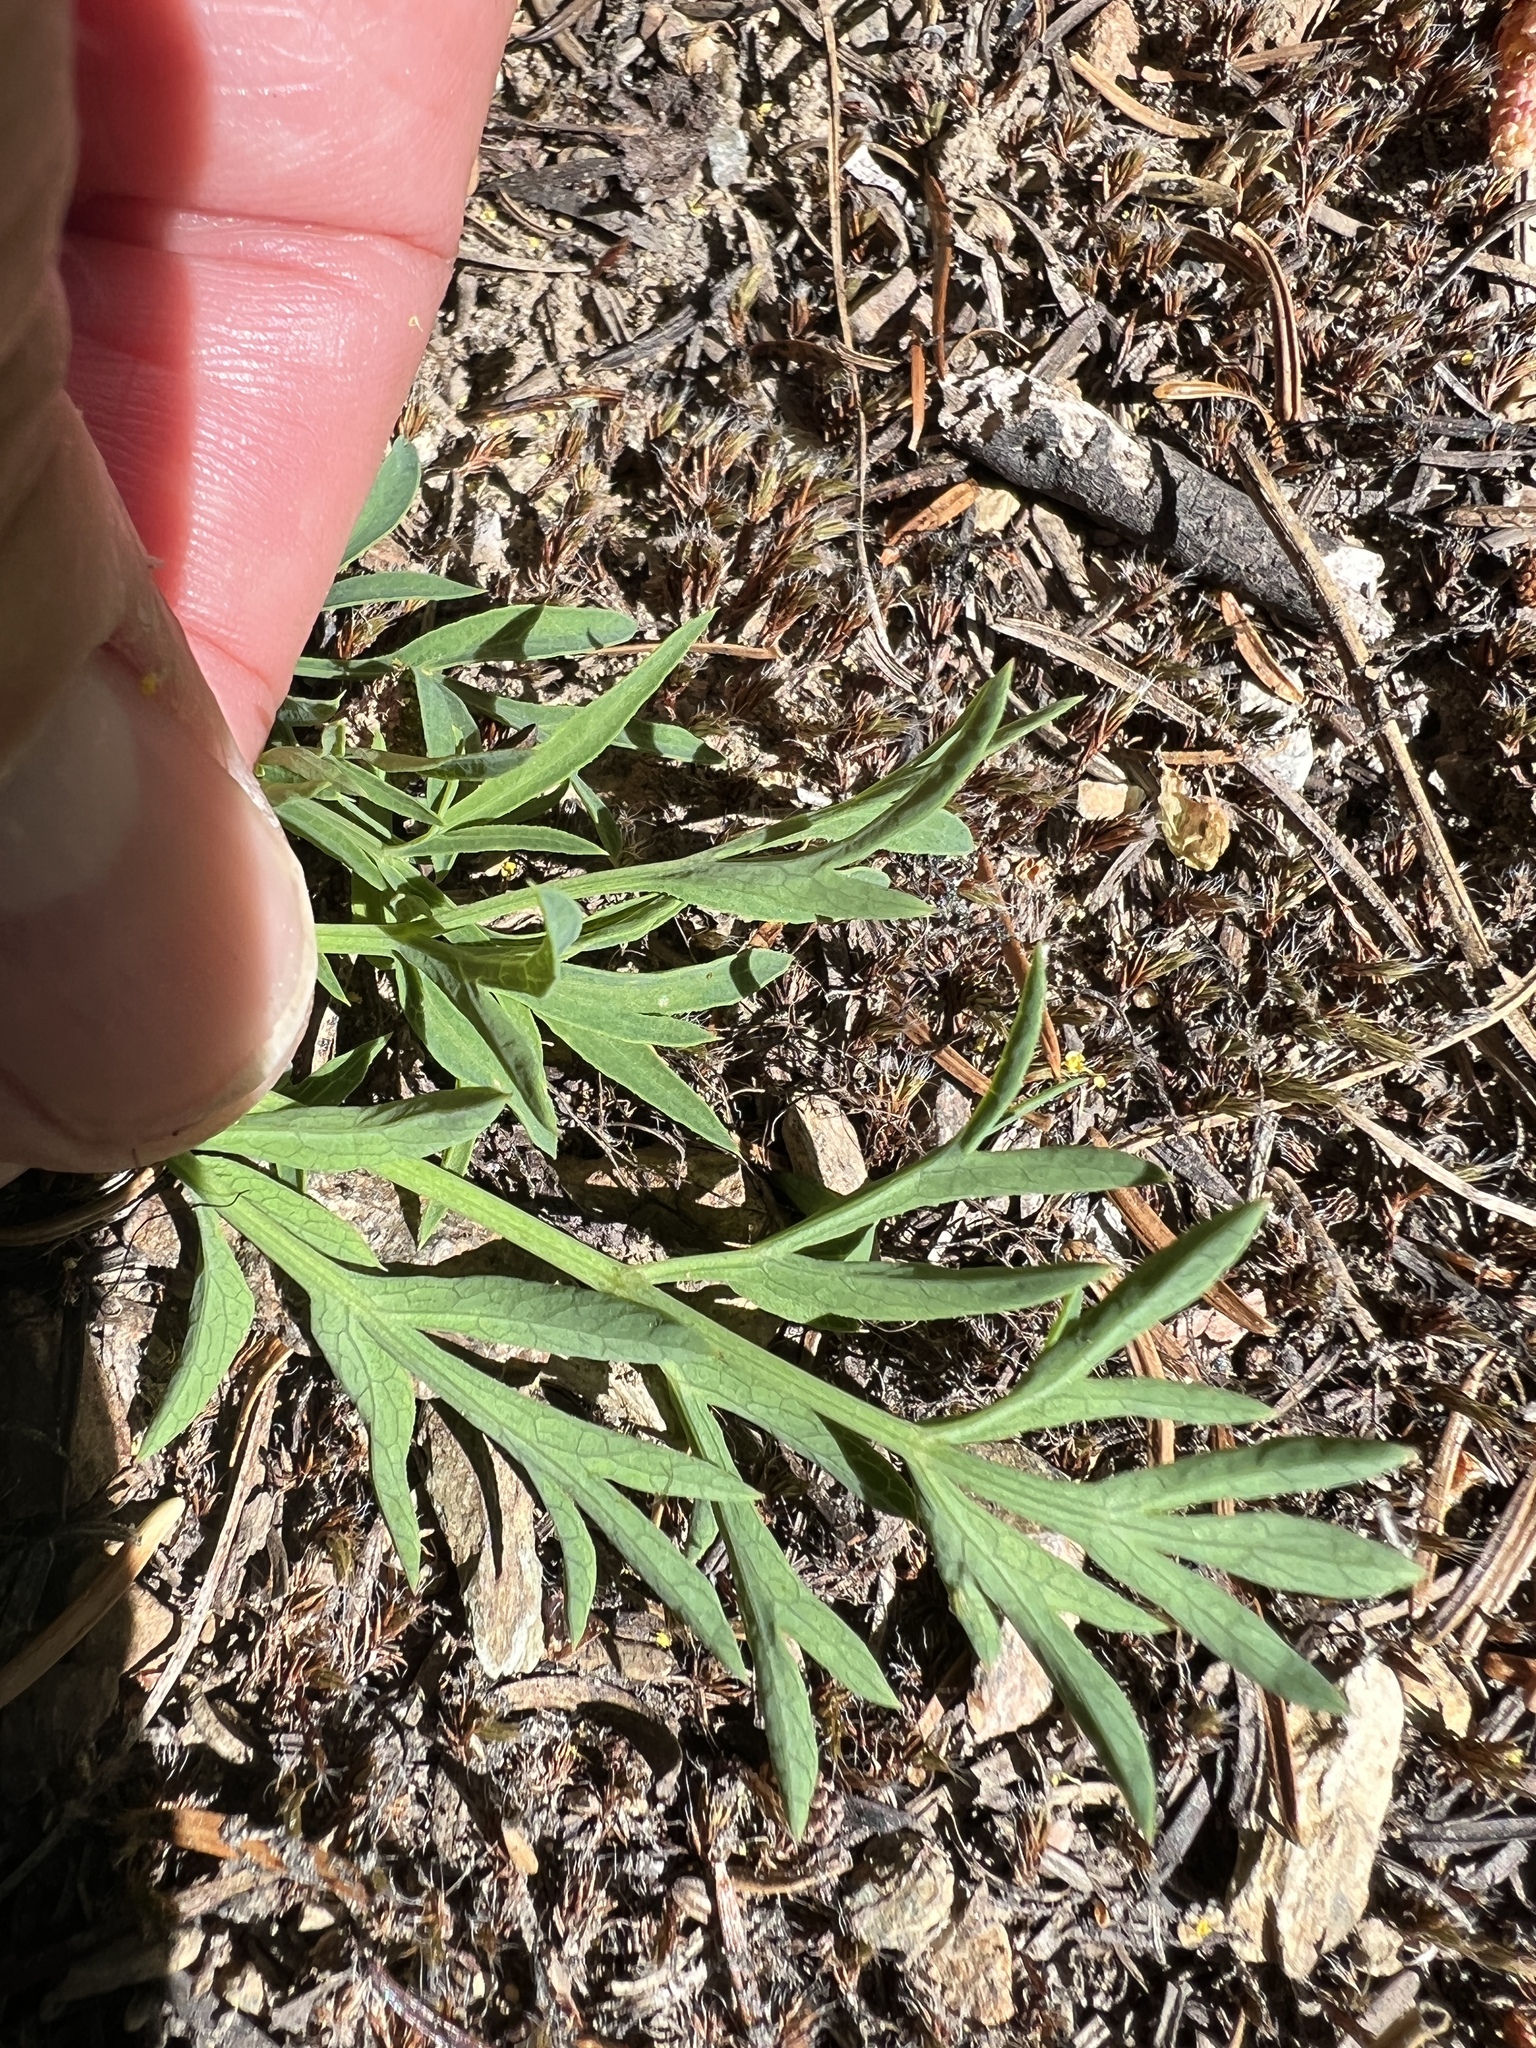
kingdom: Plantae
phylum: Tracheophyta
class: Magnoliopsida
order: Apiales
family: Apiaceae
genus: Lomatium
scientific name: Lomatium brandegeei
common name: Brandegee's desert-parsley
